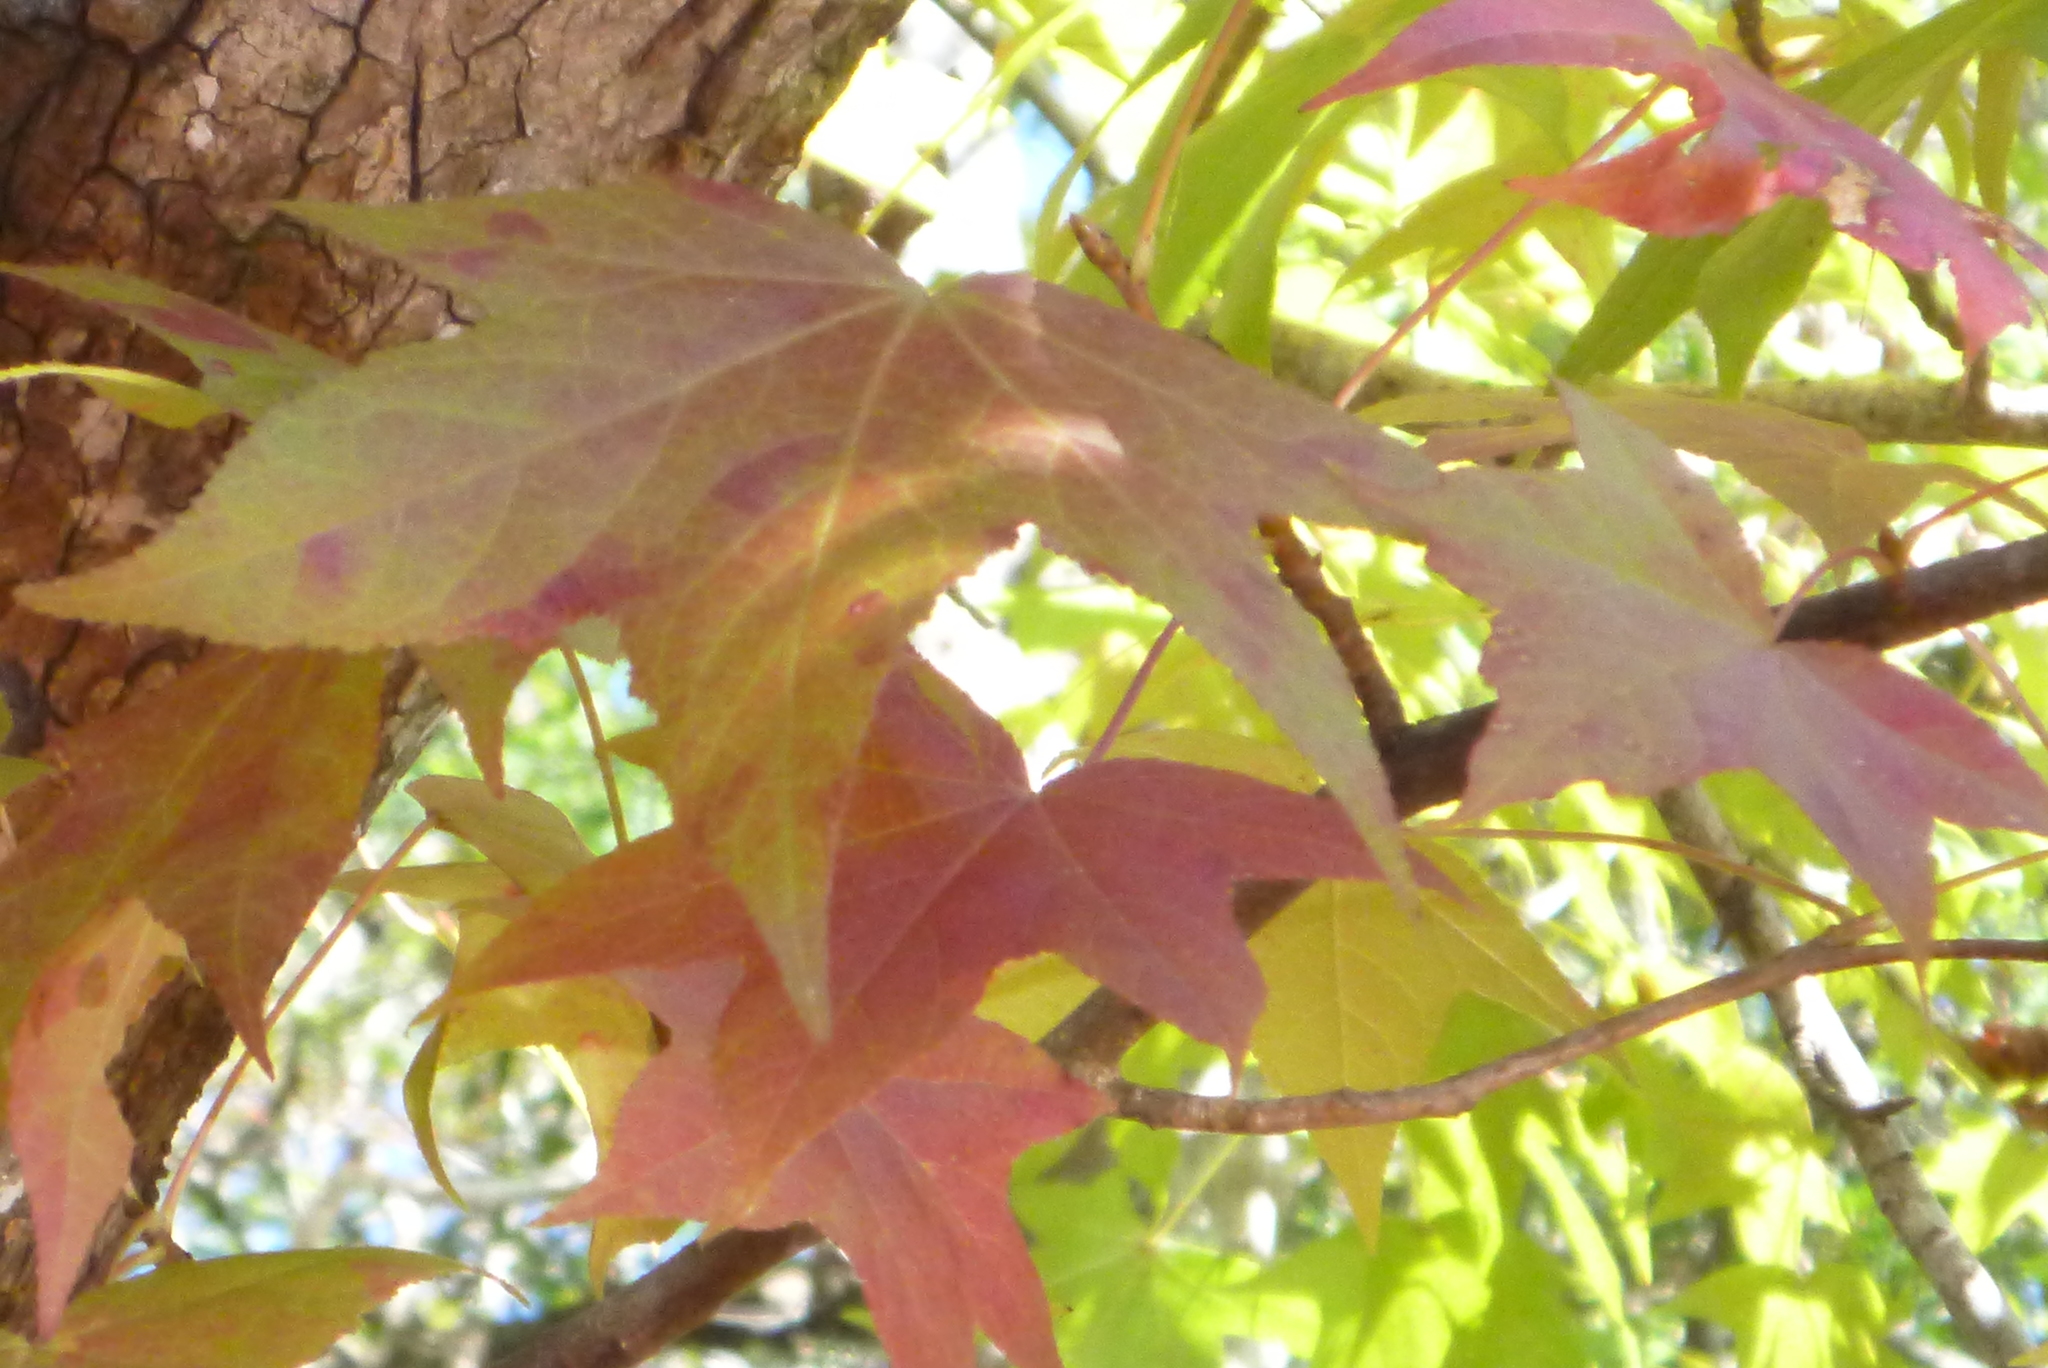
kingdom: Plantae
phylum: Tracheophyta
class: Magnoliopsida
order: Saxifragales
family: Altingiaceae
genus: Liquidambar
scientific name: Liquidambar styraciflua
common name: Sweet gum
